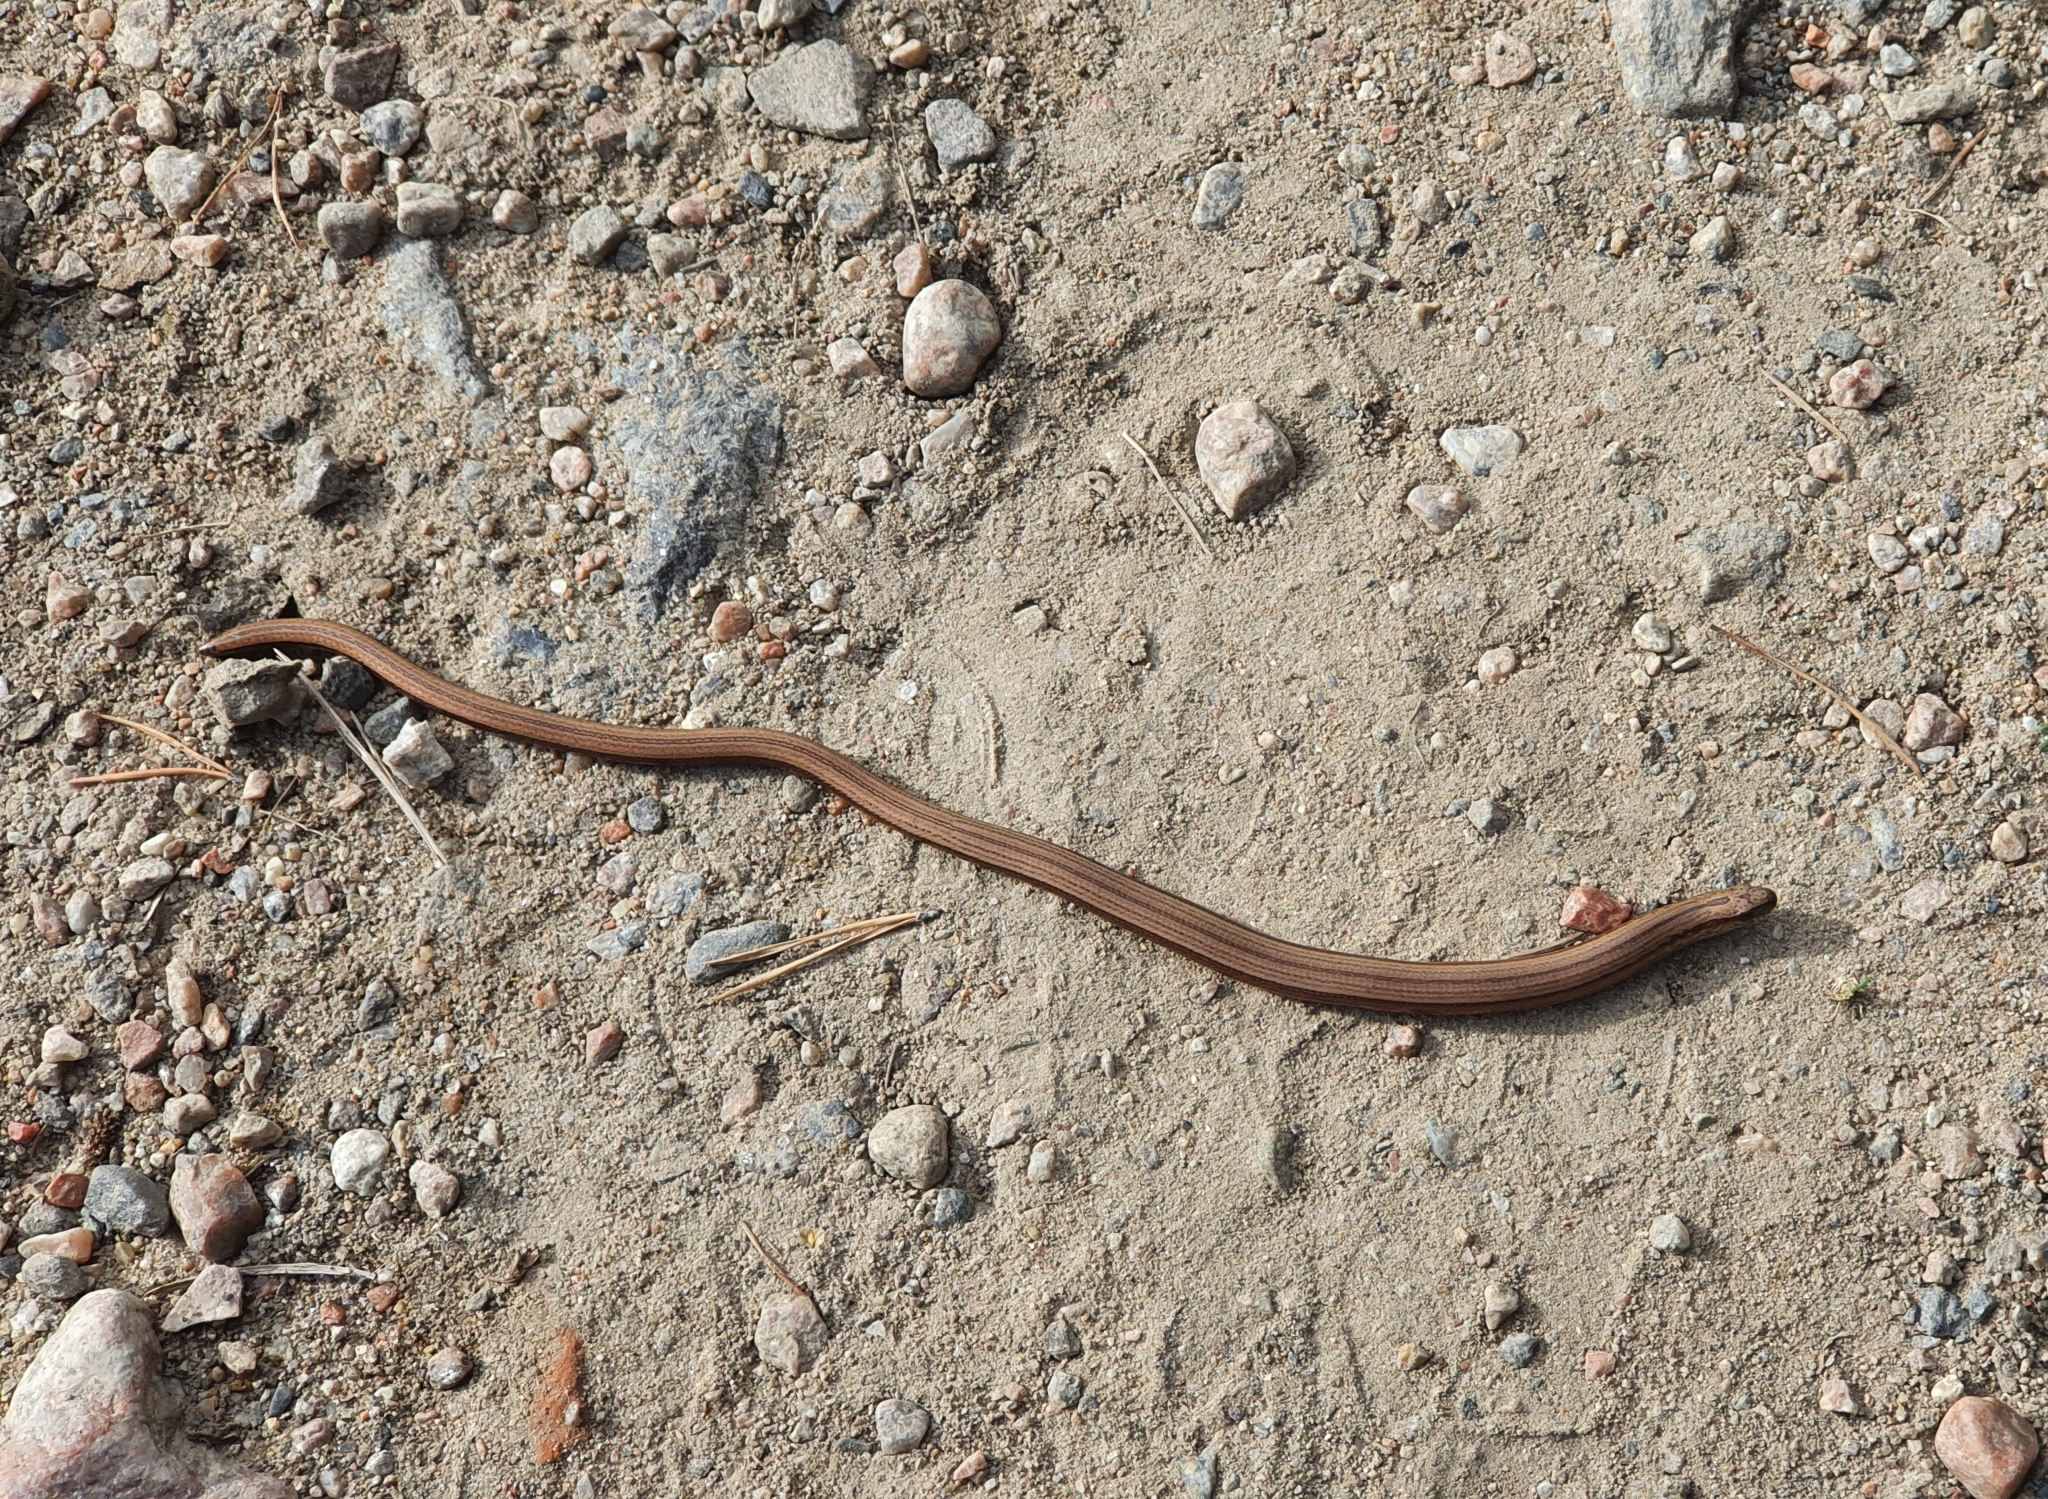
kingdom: Animalia
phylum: Chordata
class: Squamata
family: Anguidae
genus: Anguis
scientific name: Anguis fragilis
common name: Slow worm
